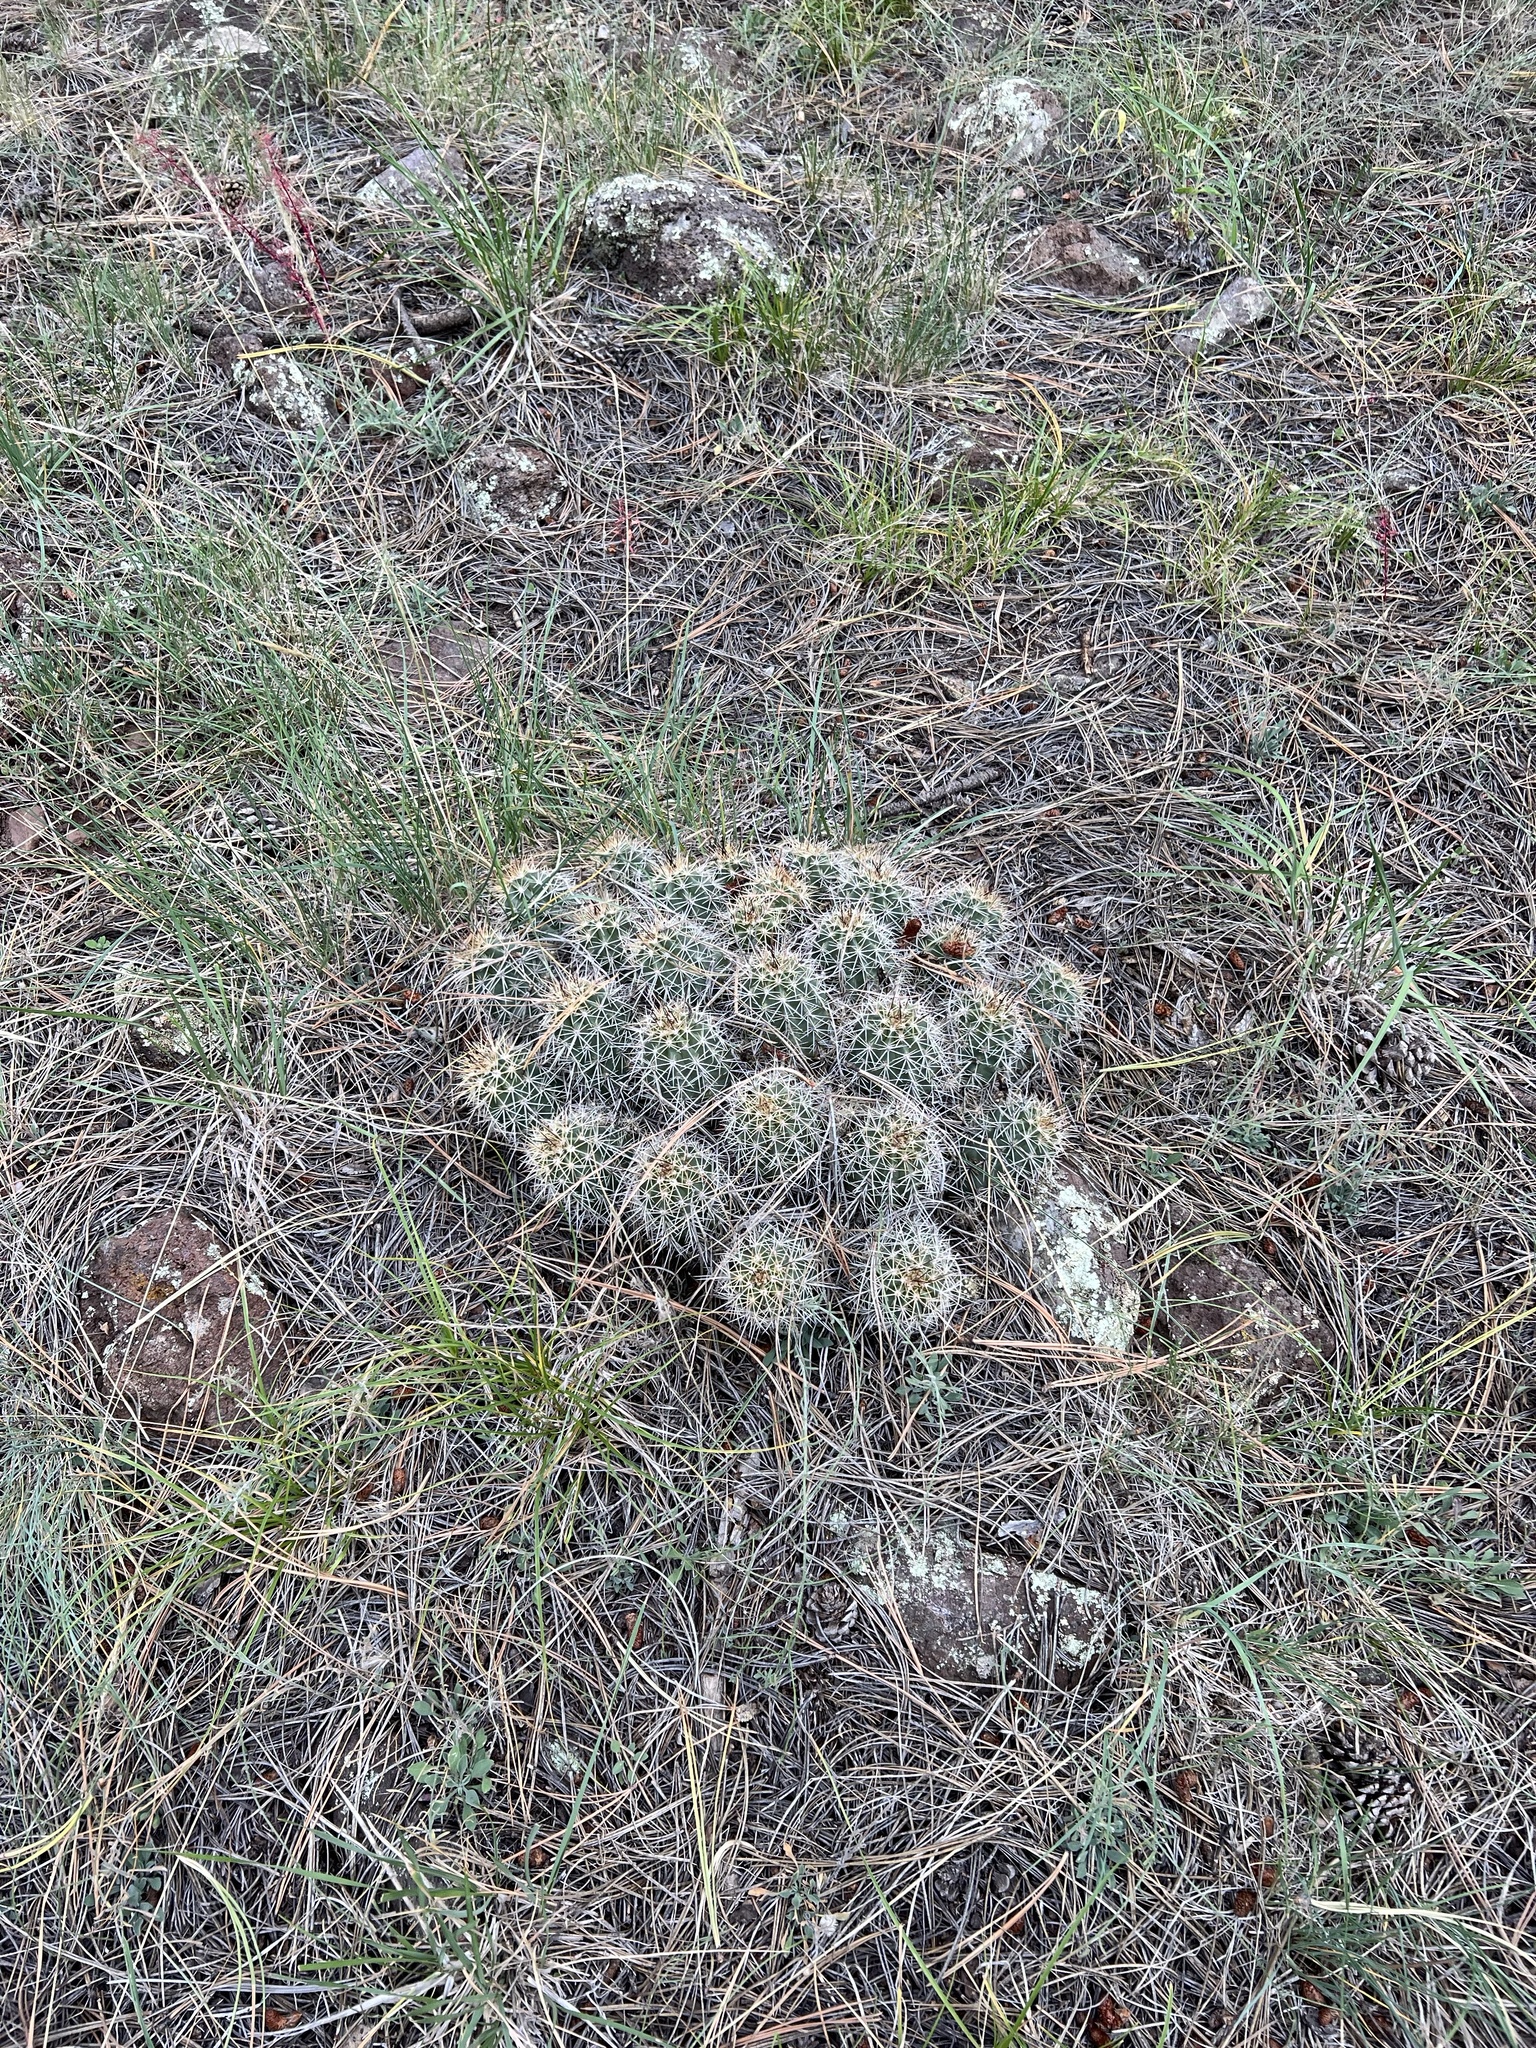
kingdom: Plantae
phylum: Tracheophyta
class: Magnoliopsida
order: Caryophyllales
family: Cactaceae
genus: Echinocereus
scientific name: Echinocereus bakeri
